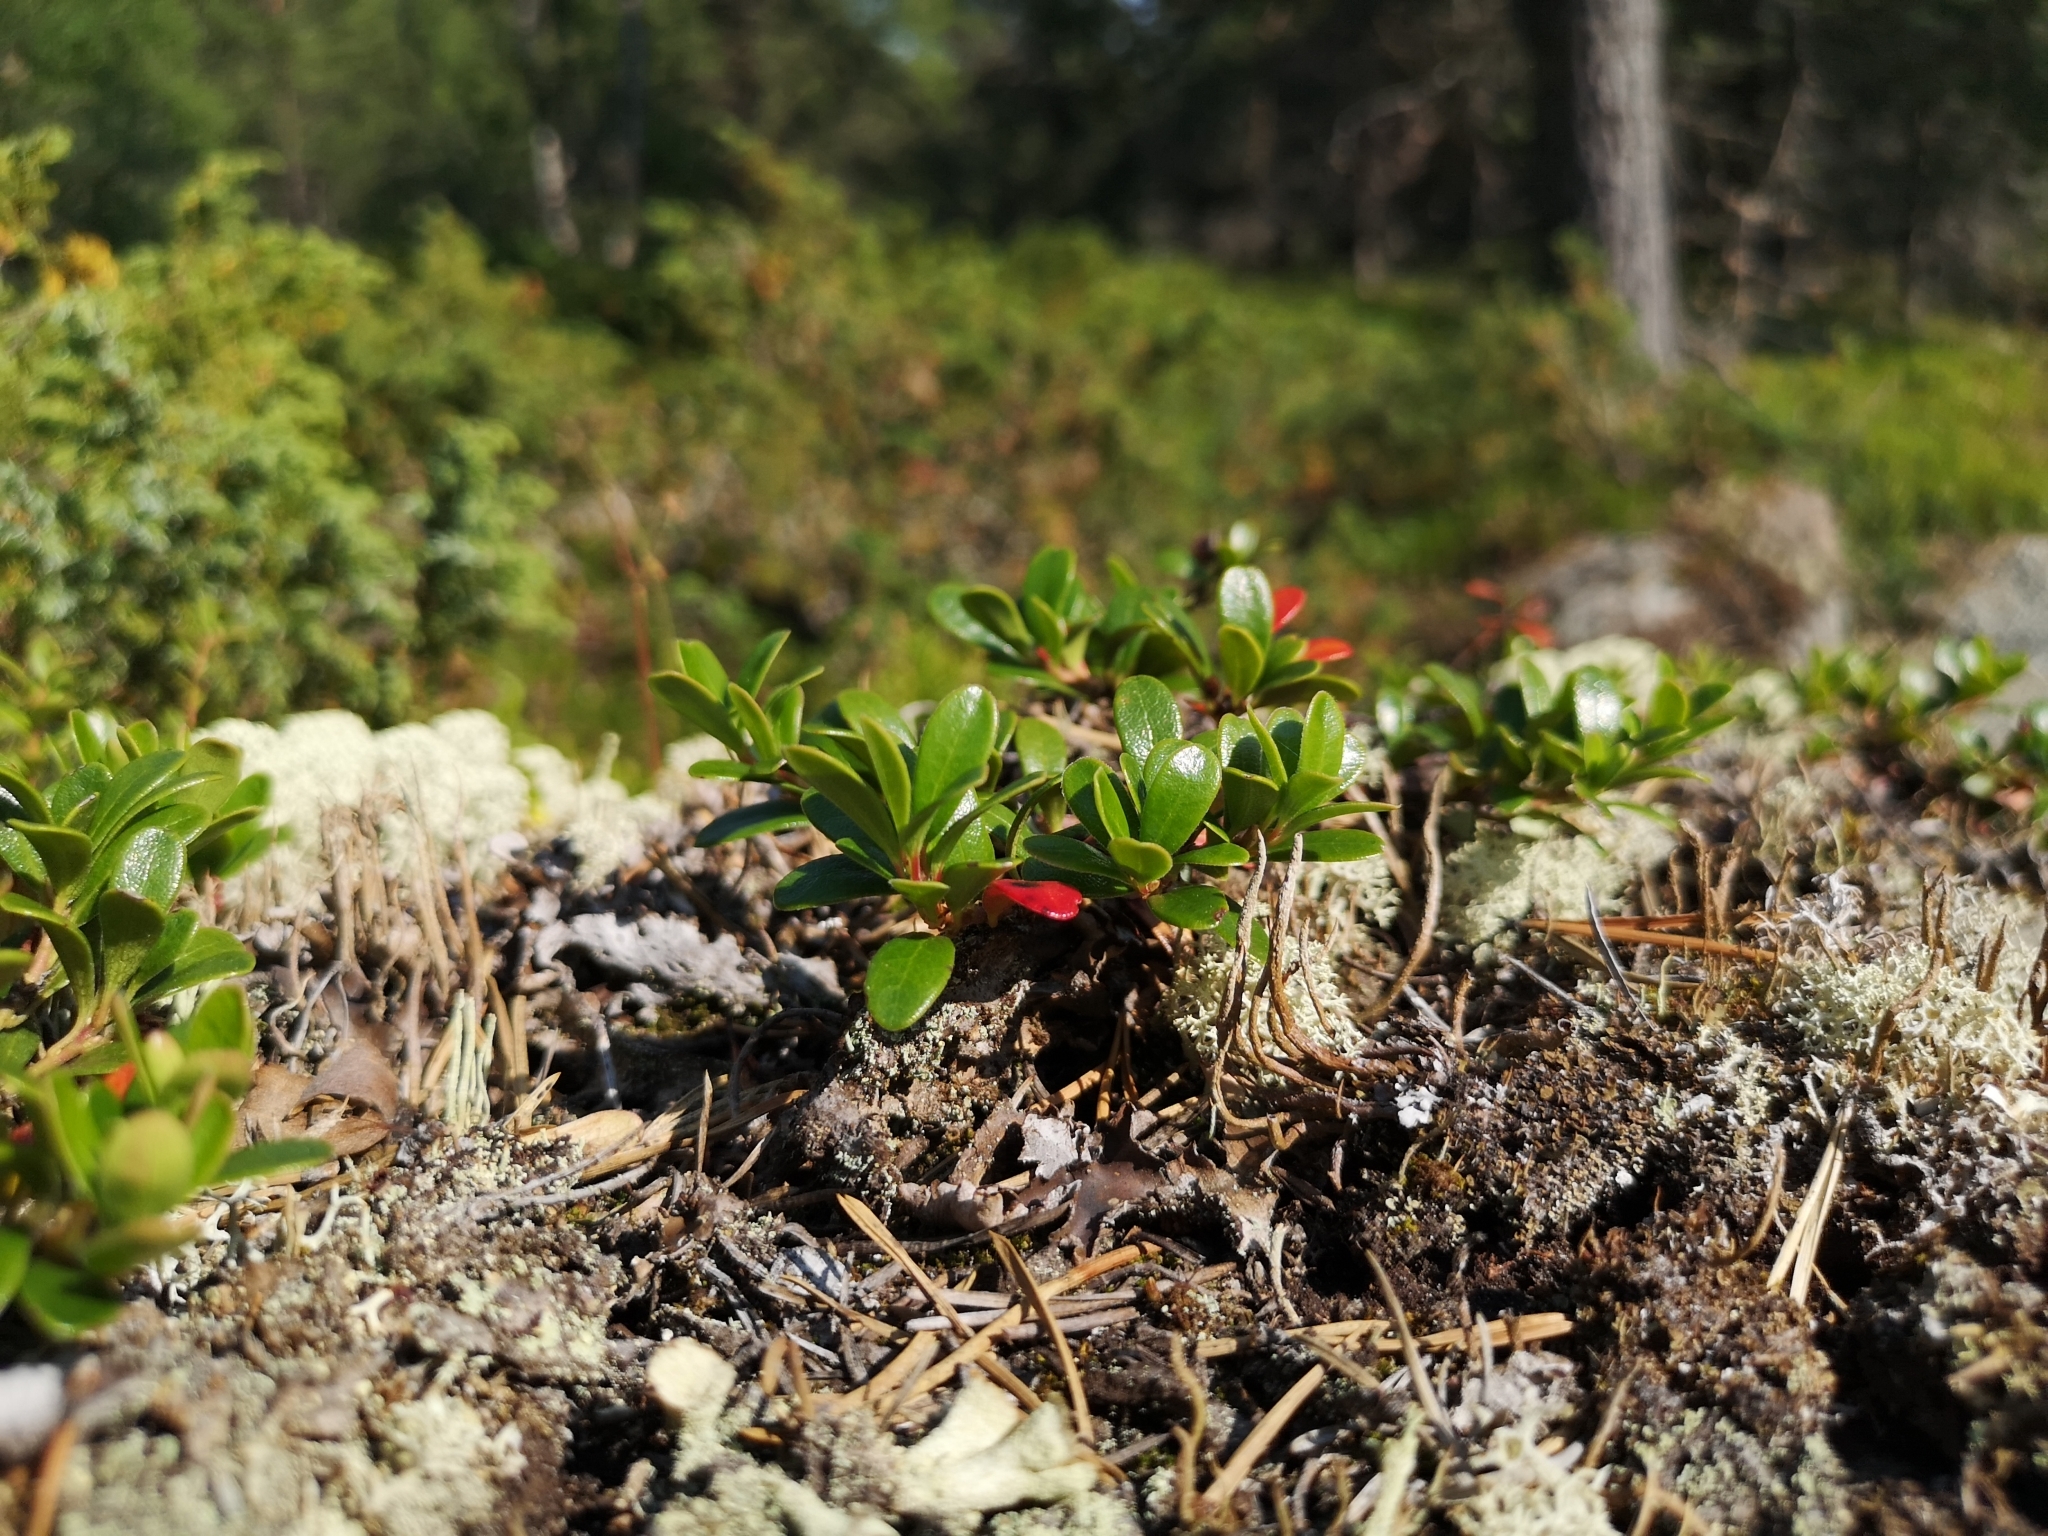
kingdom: Plantae
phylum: Tracheophyta
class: Magnoliopsida
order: Ericales
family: Ericaceae
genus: Arctostaphylos
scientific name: Arctostaphylos uva-ursi
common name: Bearberry
